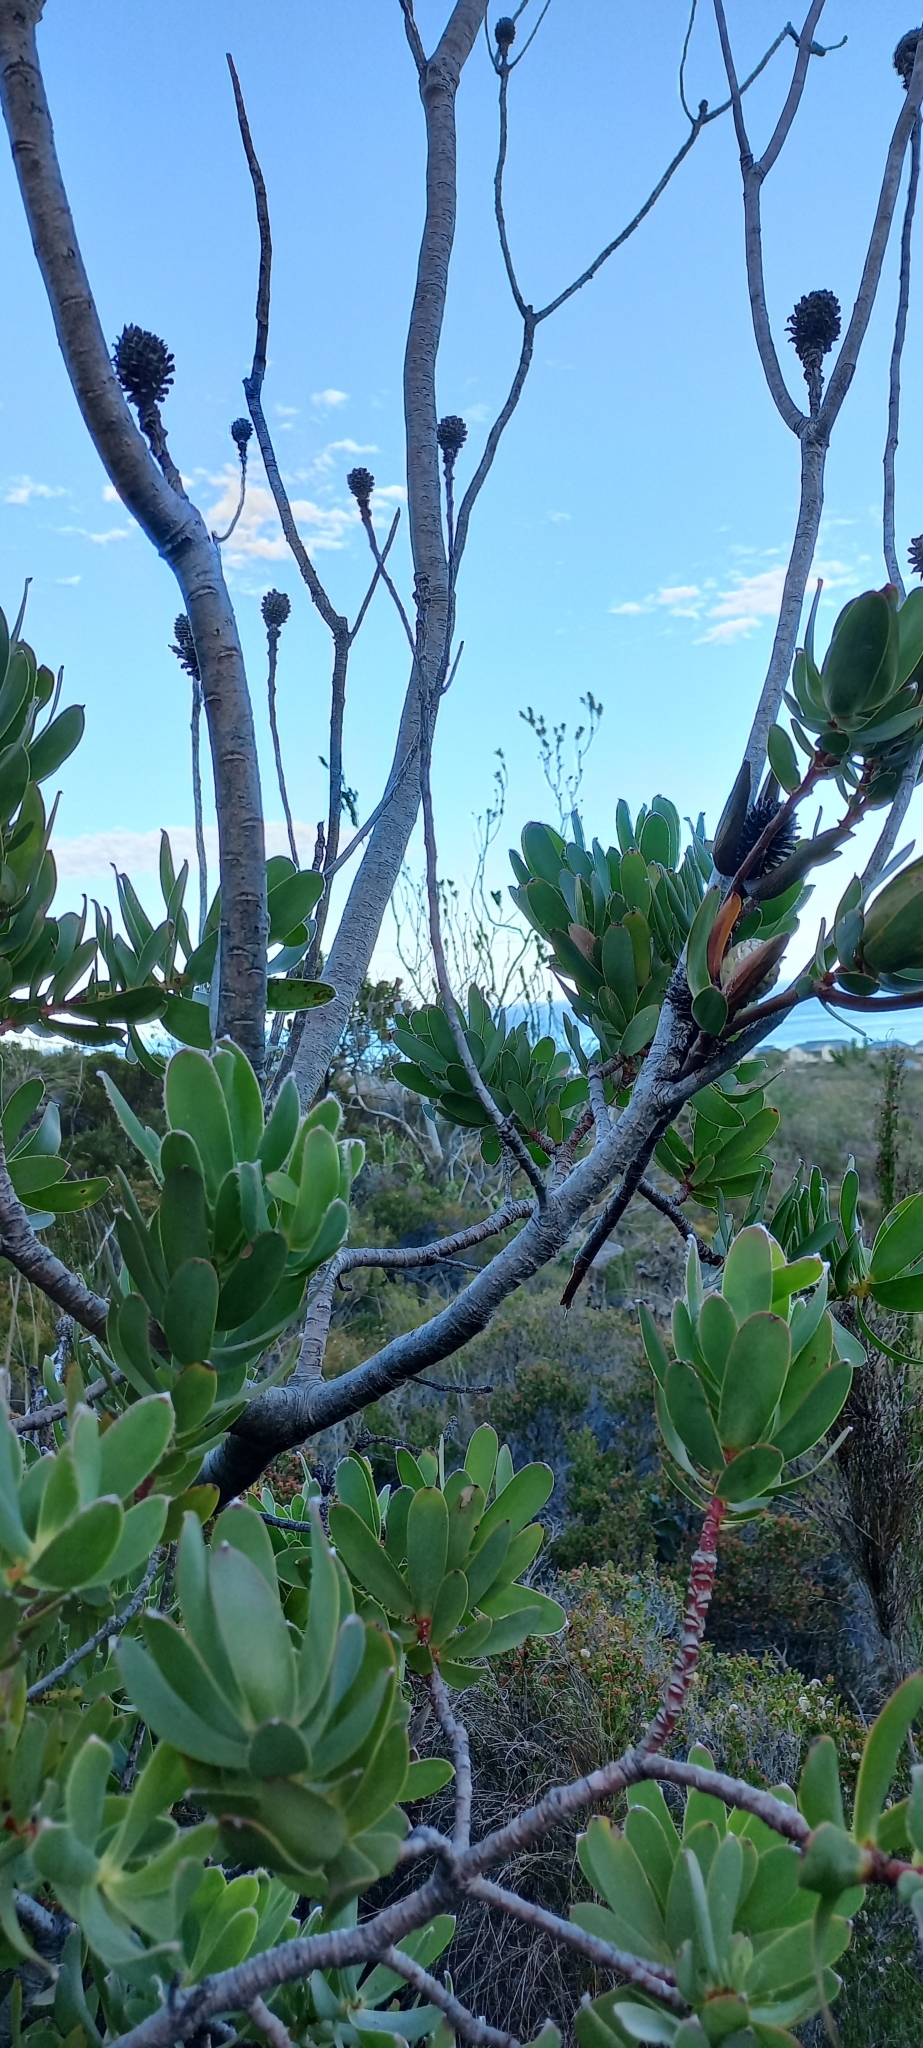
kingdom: Plantae
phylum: Tracheophyta
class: Magnoliopsida
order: Proteales
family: Proteaceae
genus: Leucadendron
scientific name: Leucadendron discolor
